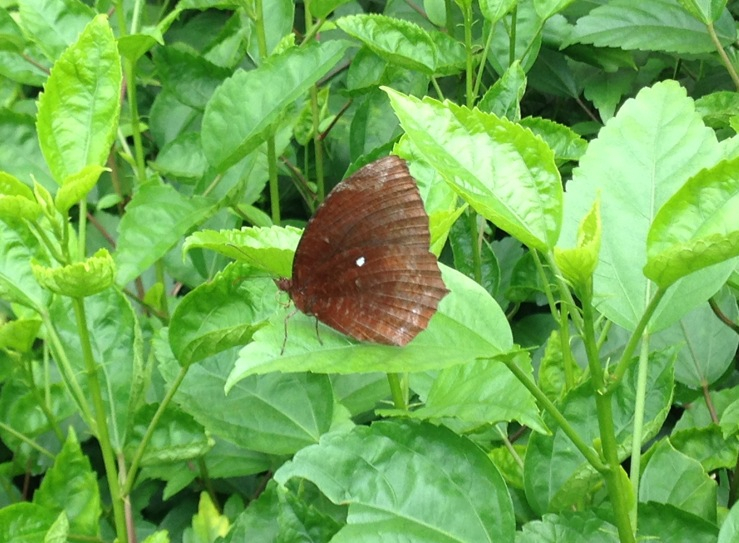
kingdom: Animalia
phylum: Arthropoda
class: Insecta
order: Lepidoptera
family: Nymphalidae
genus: Elymnias
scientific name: Elymnias hypermnestra
